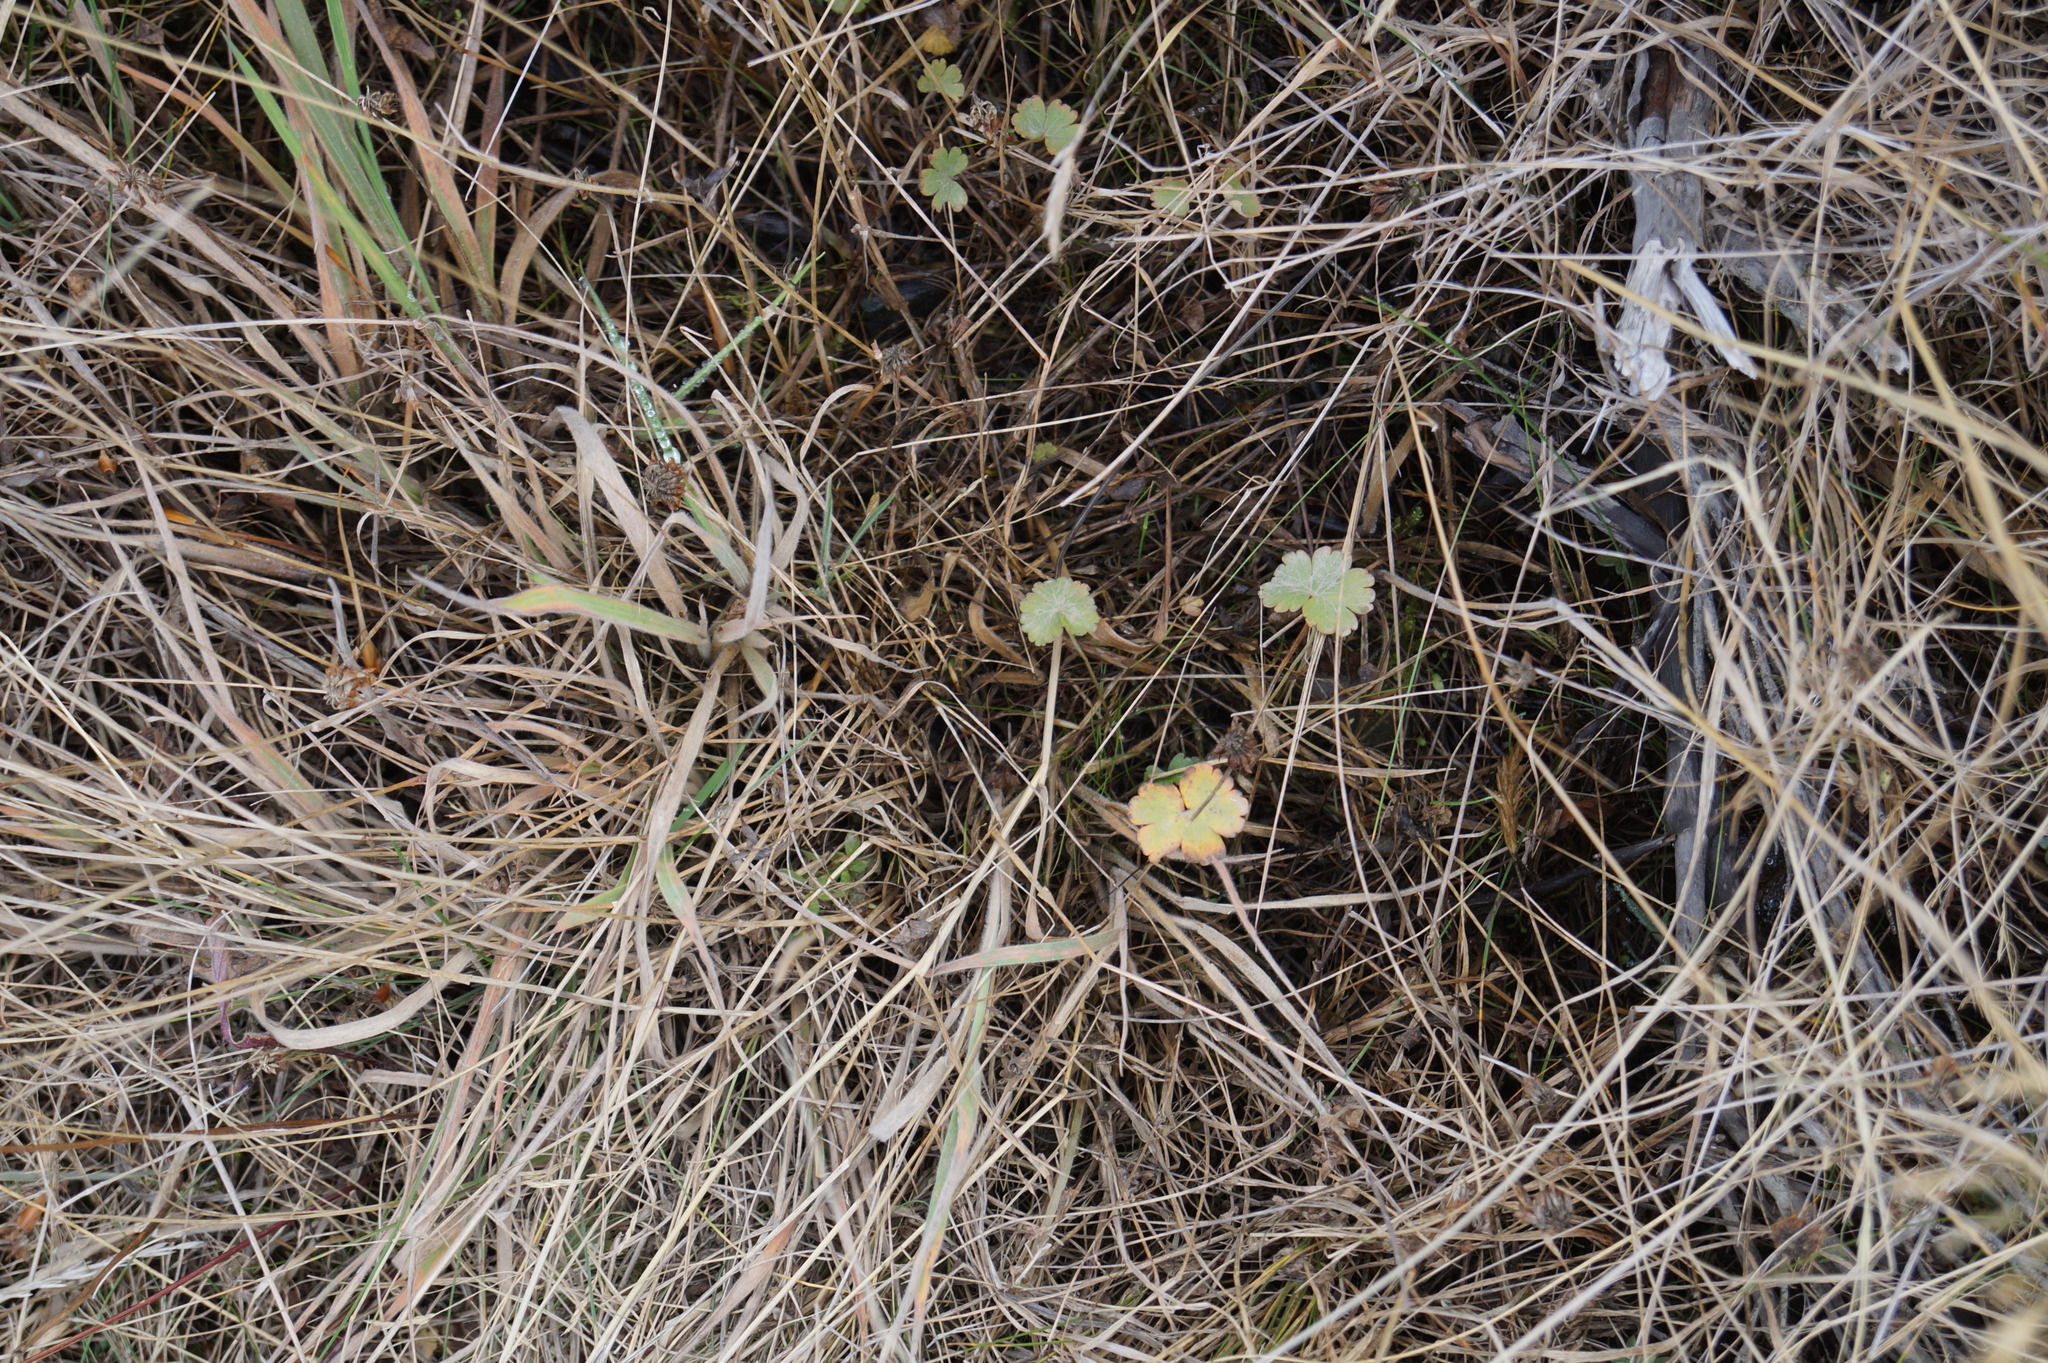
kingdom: Plantae
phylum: Tracheophyta
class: Magnoliopsida
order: Apiales
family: Araliaceae
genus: Hydrocotyle
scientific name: Hydrocotyle novae-zeelandiae
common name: New zealand pennywort
